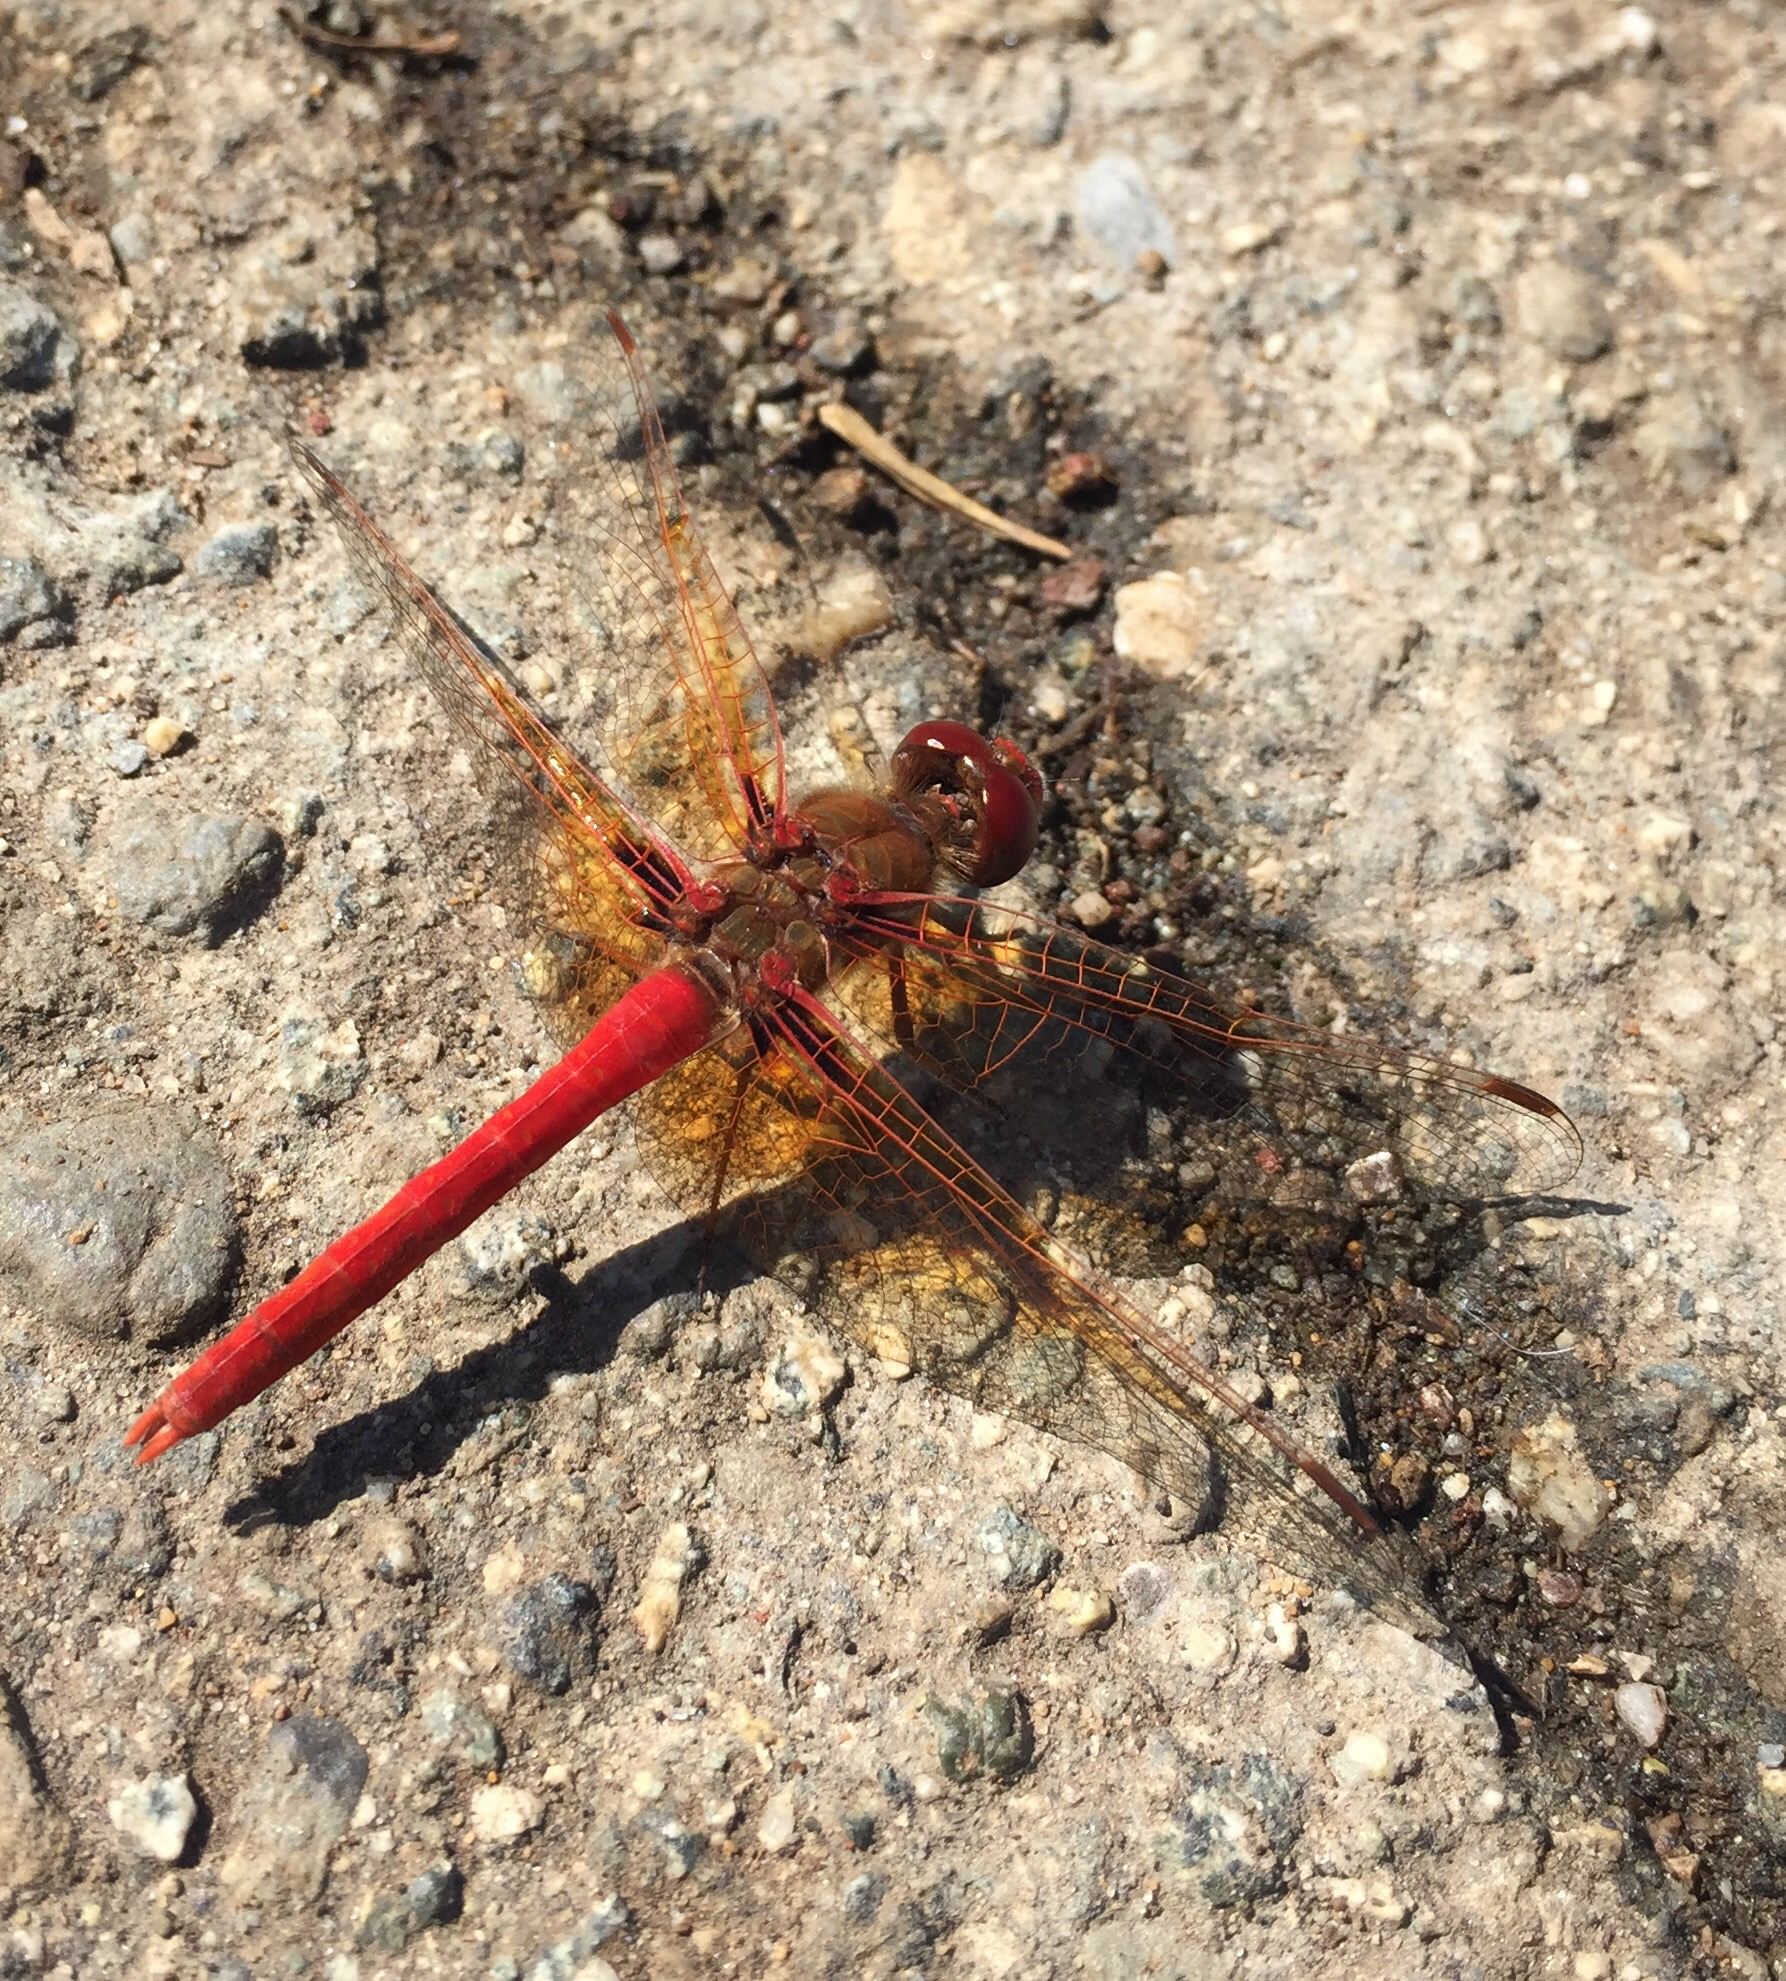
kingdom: Animalia
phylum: Arthropoda
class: Insecta
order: Odonata
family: Libellulidae
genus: Sympetrum
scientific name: Sympetrum illotum
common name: Cardinal meadowhawk
